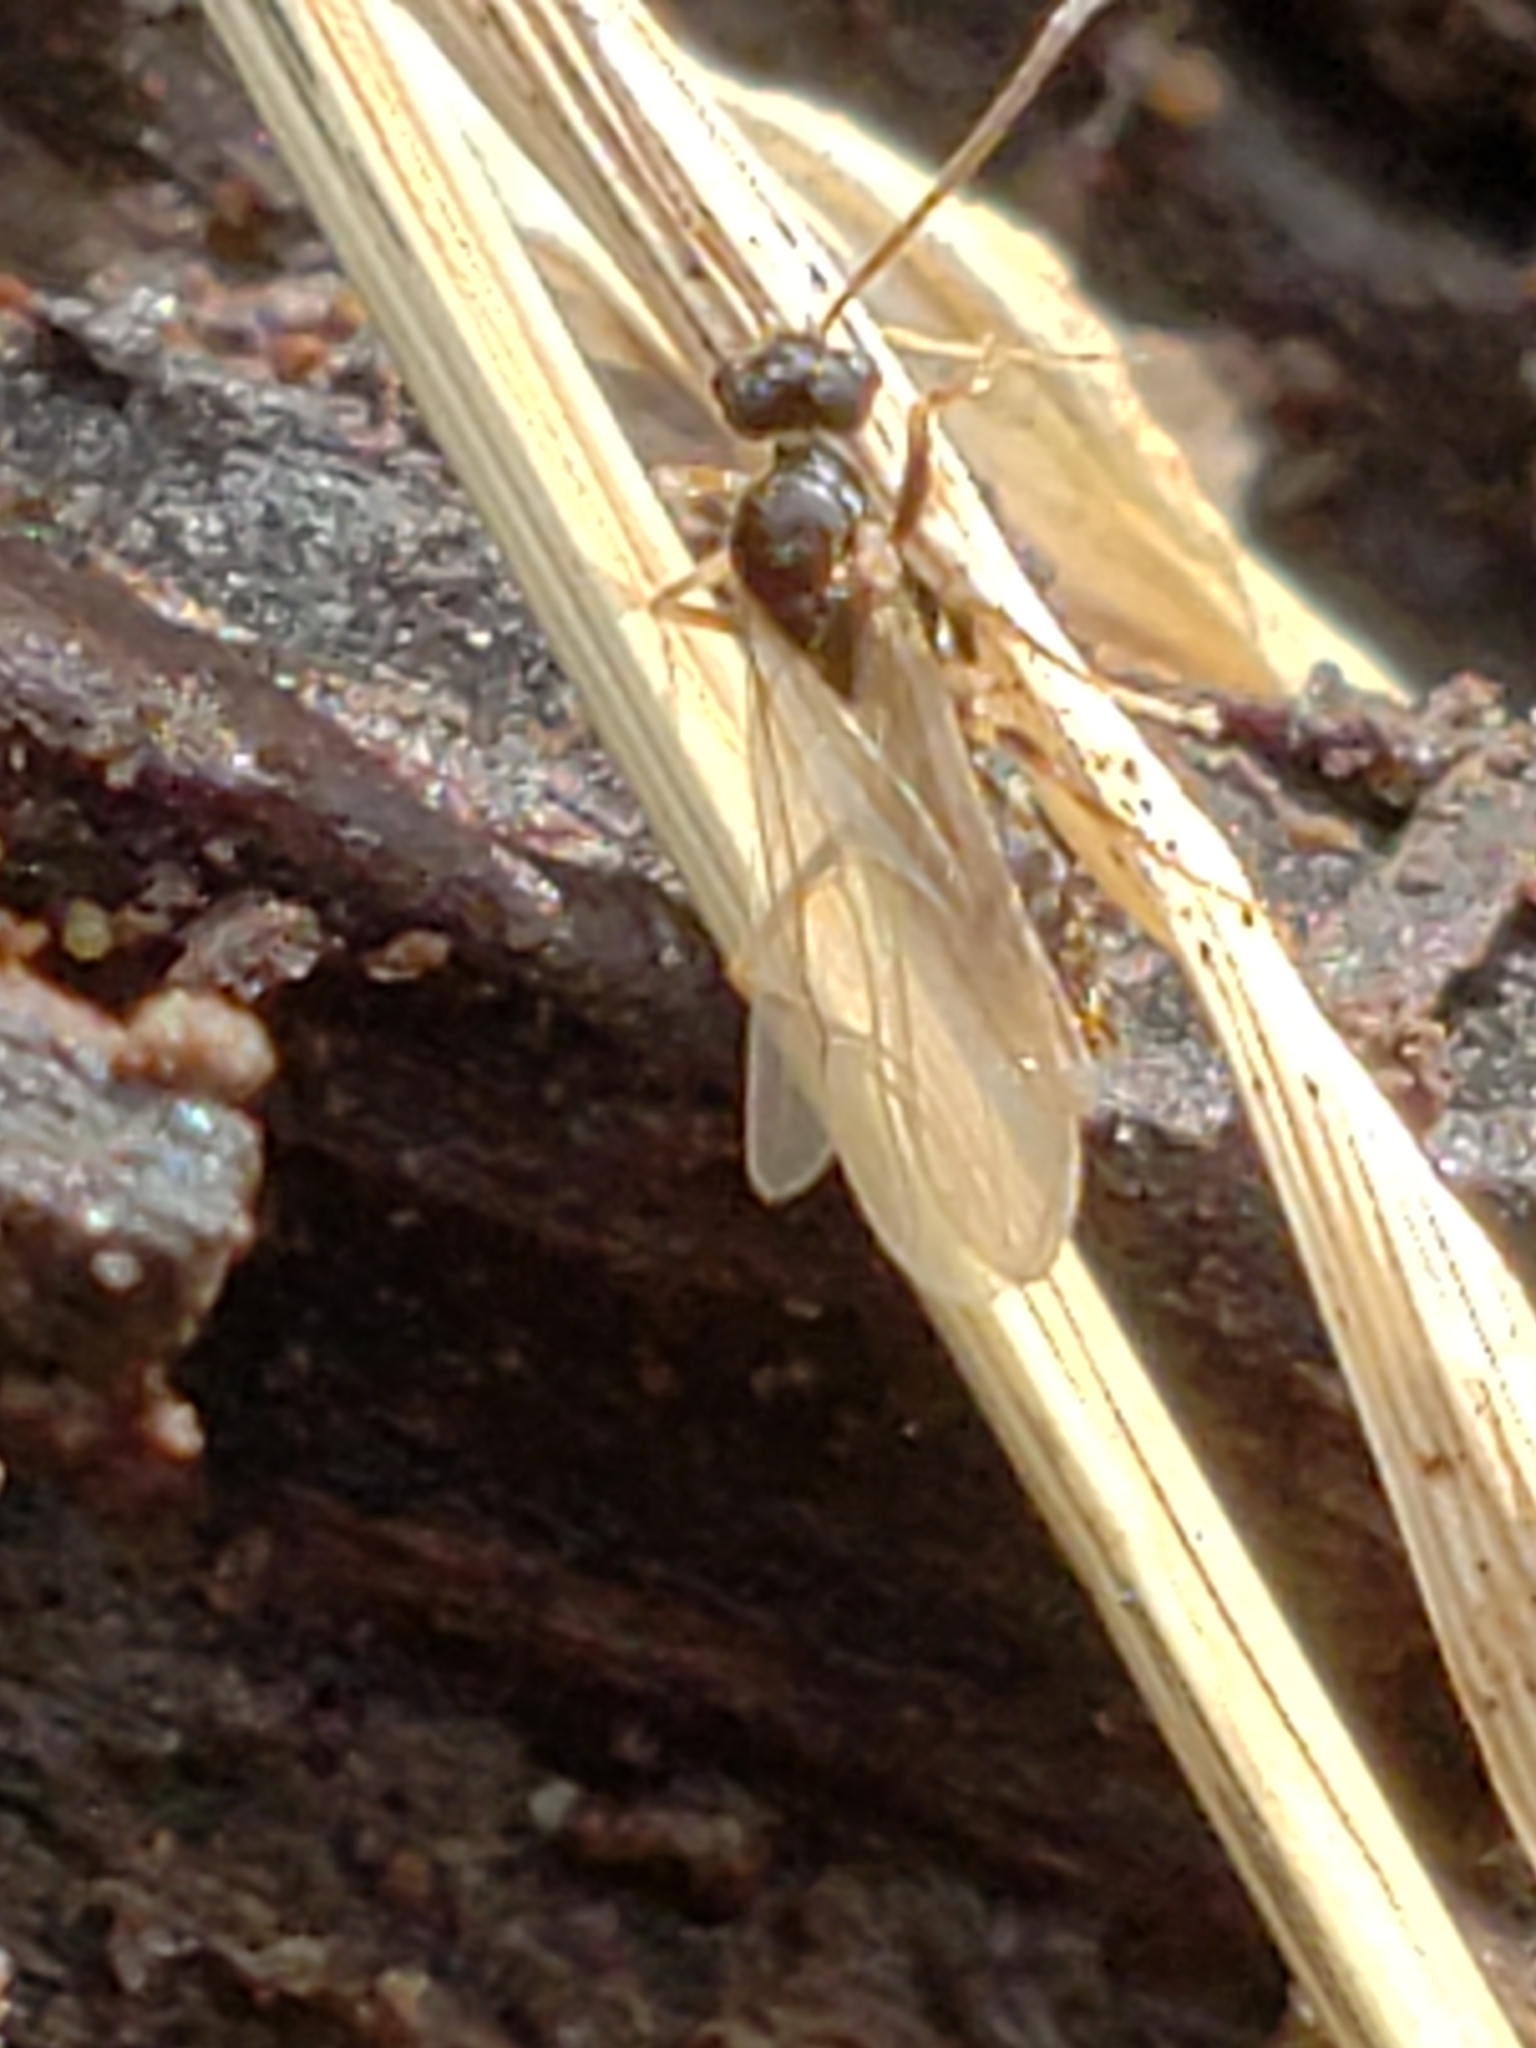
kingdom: Animalia
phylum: Arthropoda
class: Insecta
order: Hymenoptera
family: Formicidae
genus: Prenolepis
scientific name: Prenolepis imparis
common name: Small honey ant
